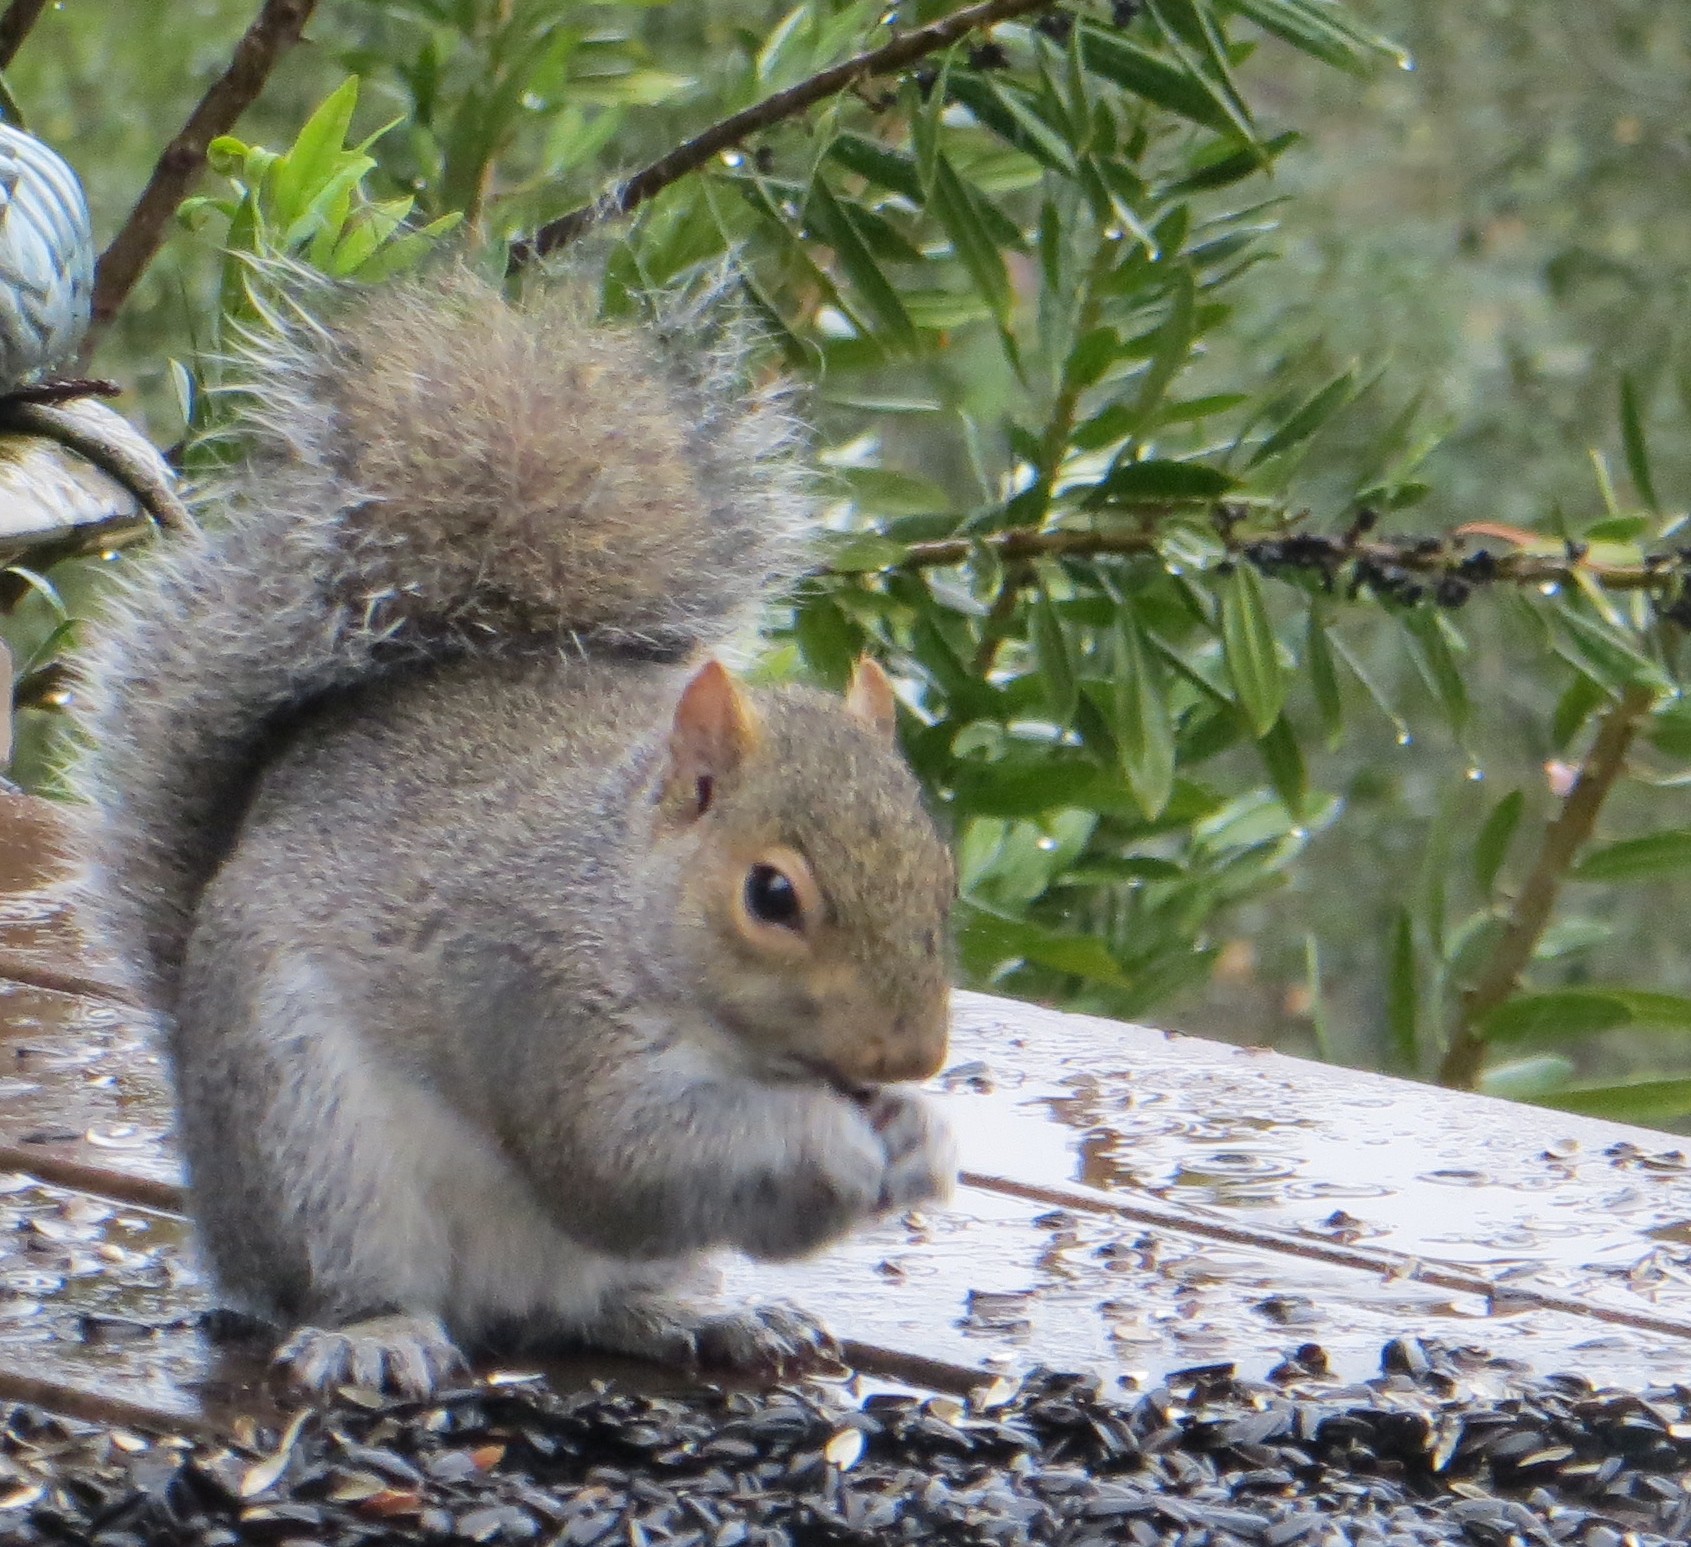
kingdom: Animalia
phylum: Chordata
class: Mammalia
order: Rodentia
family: Sciuridae
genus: Sciurus
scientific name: Sciurus carolinensis
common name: Eastern gray squirrel
